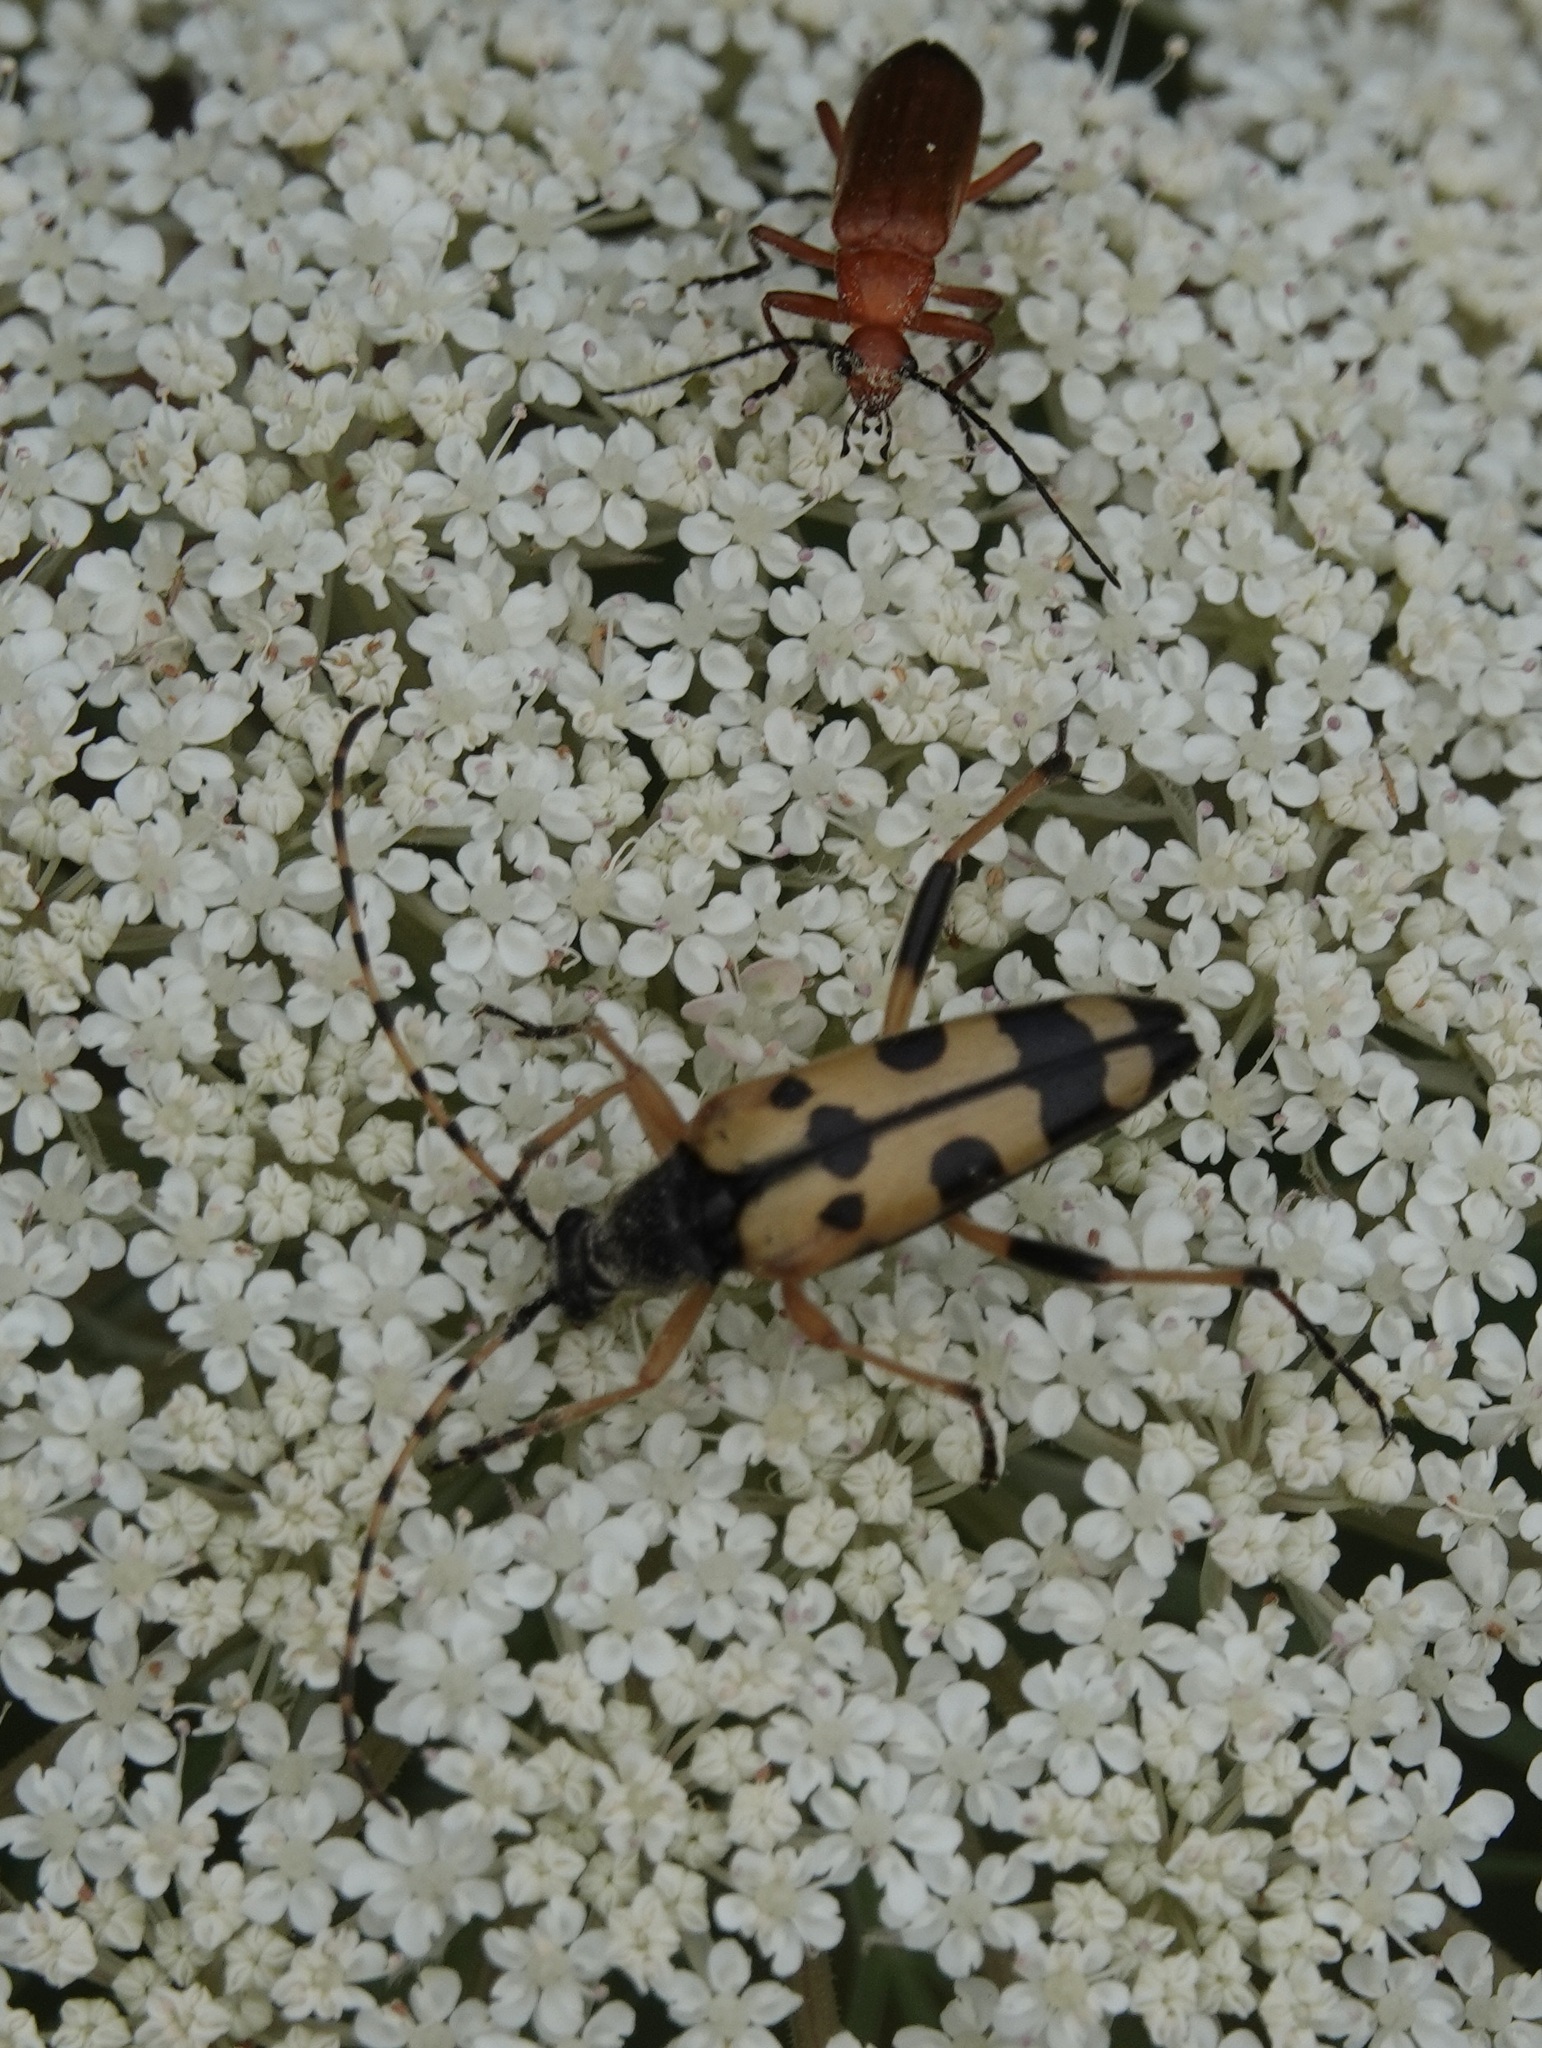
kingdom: Animalia
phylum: Arthropoda
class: Insecta
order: Coleoptera
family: Cerambycidae
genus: Rutpela
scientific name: Rutpela maculata
